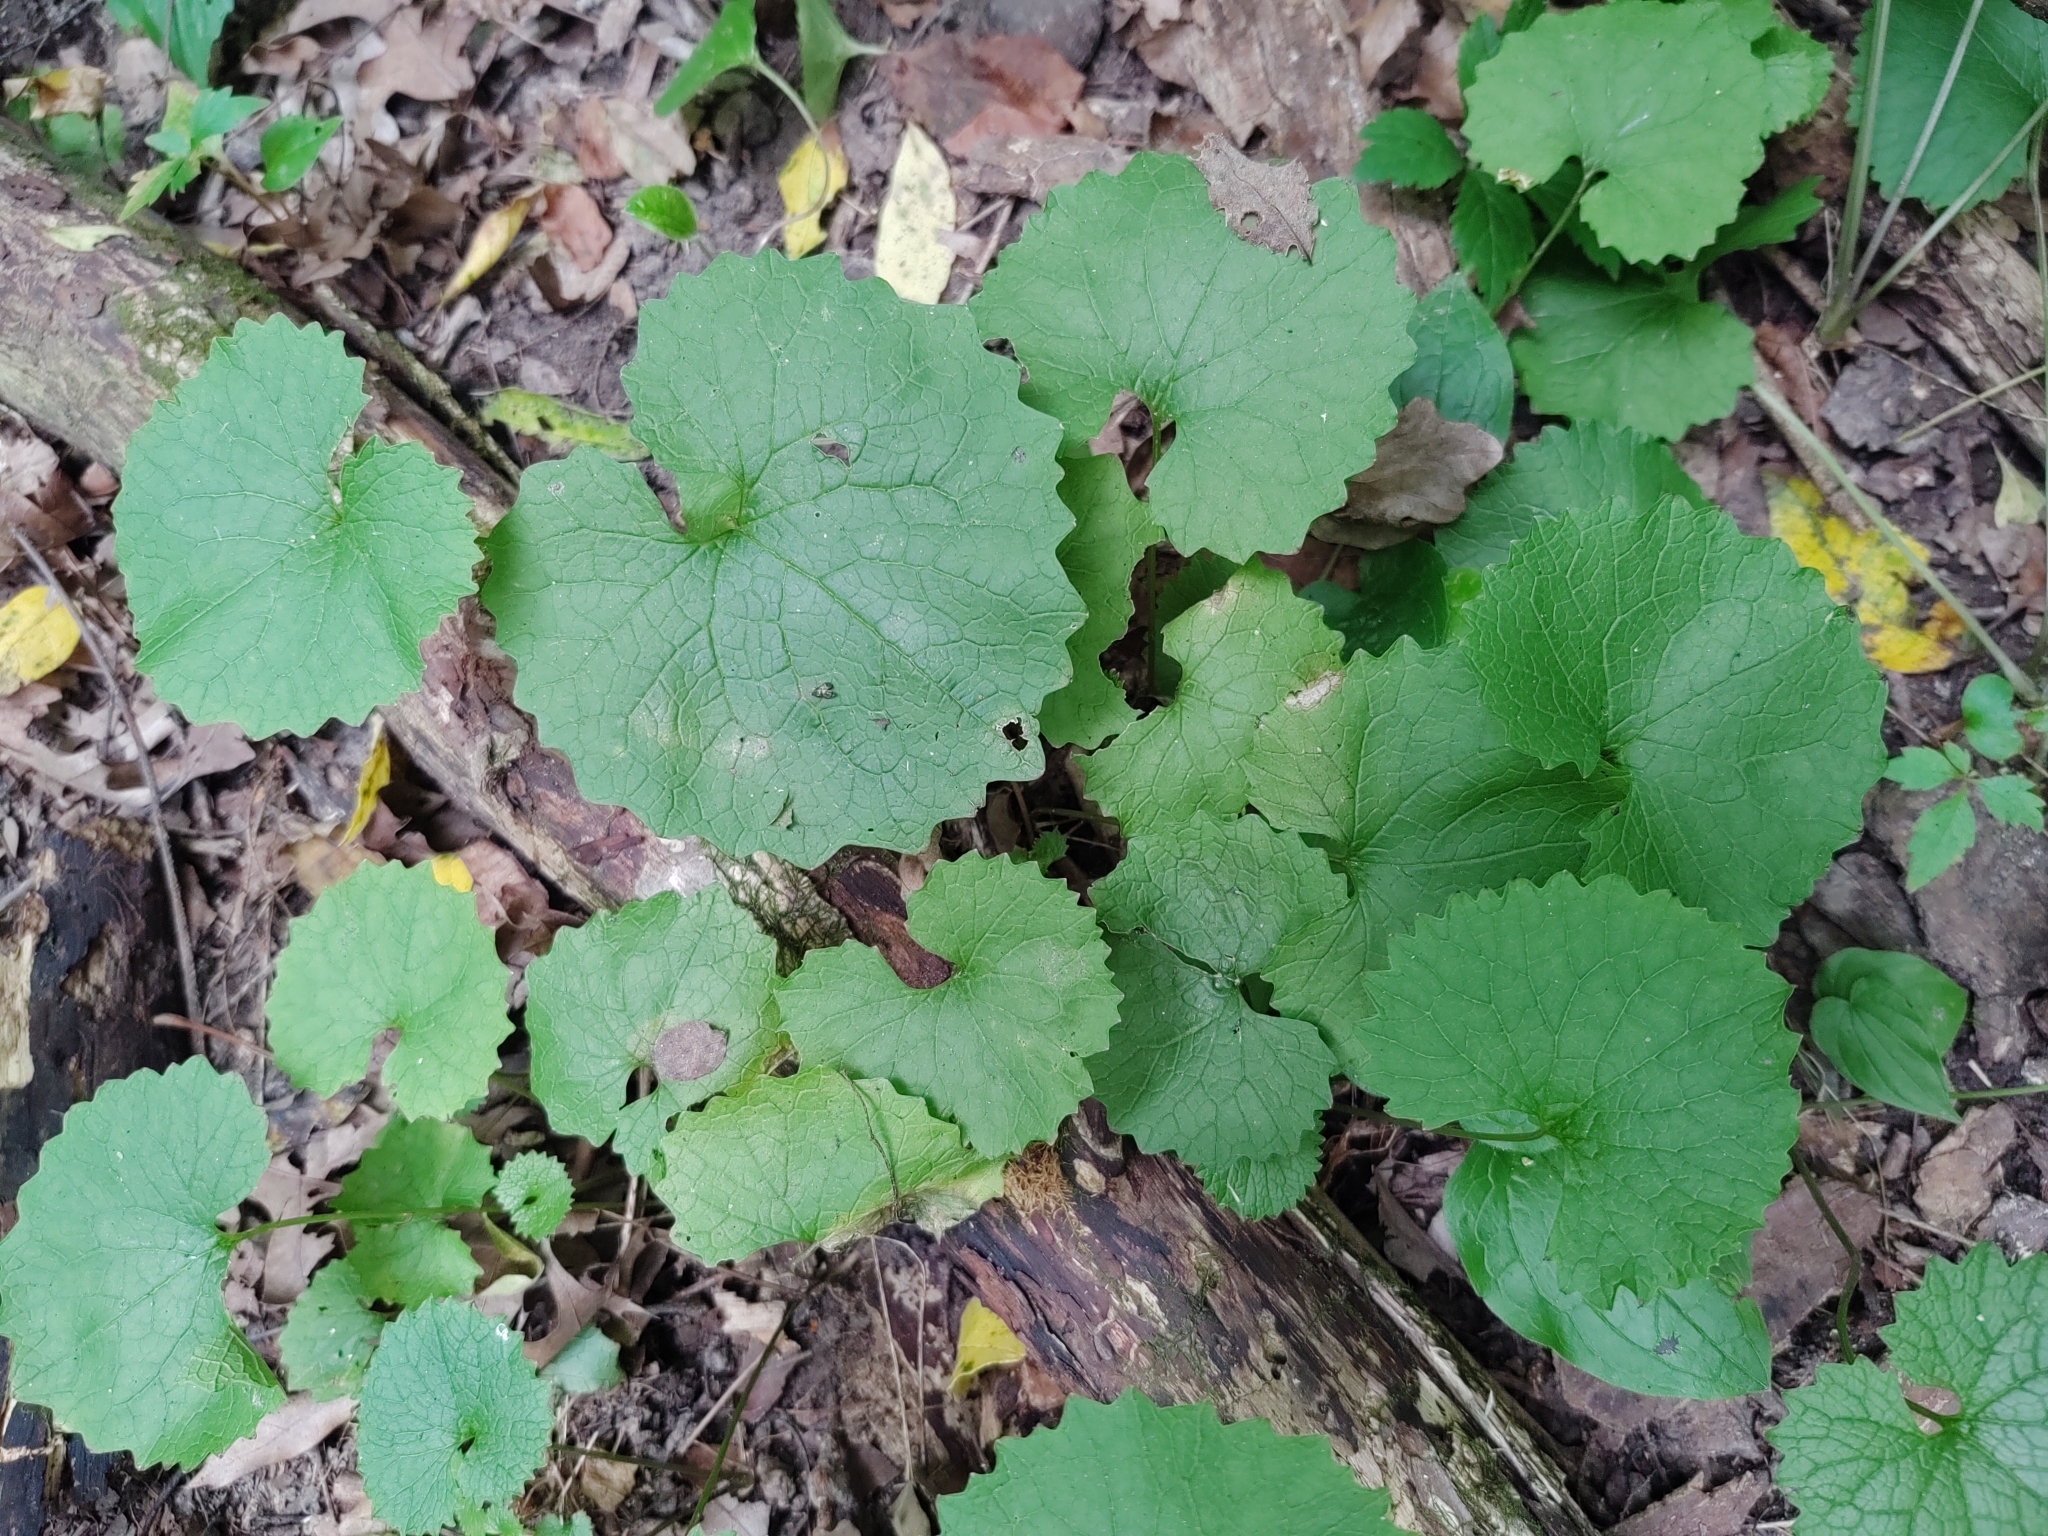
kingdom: Plantae
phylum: Tracheophyta
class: Magnoliopsida
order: Brassicales
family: Brassicaceae
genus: Alliaria
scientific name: Alliaria petiolata
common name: Garlic mustard
